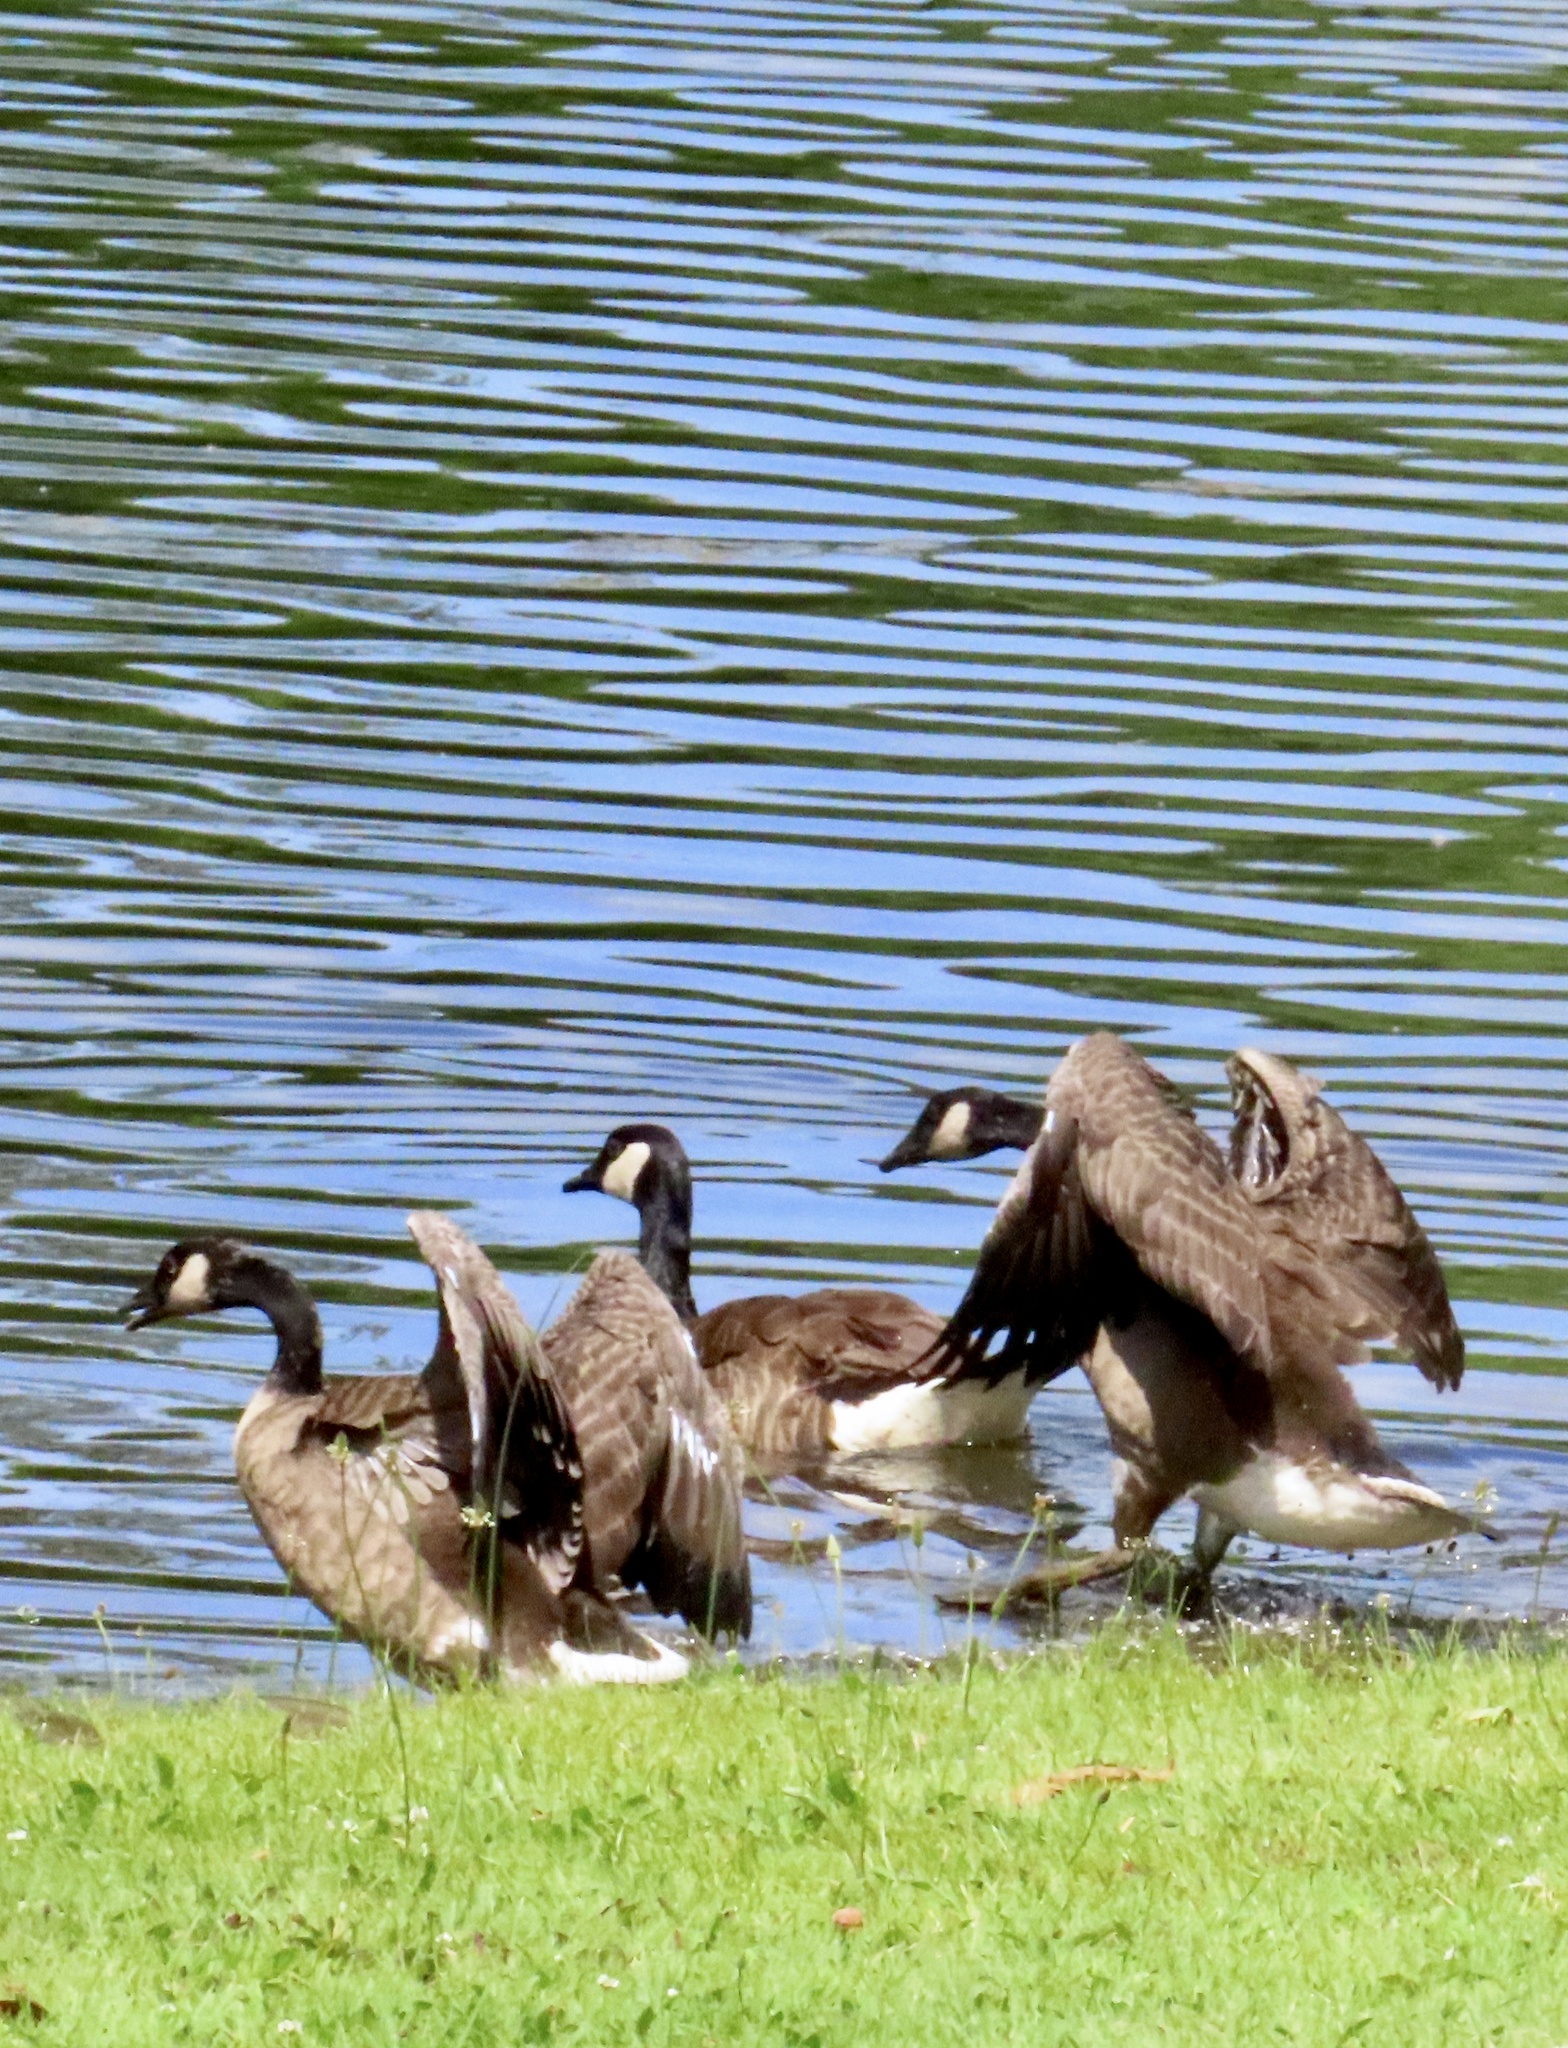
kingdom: Animalia
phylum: Chordata
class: Aves
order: Anseriformes
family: Anatidae
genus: Branta
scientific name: Branta canadensis
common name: Canada goose
